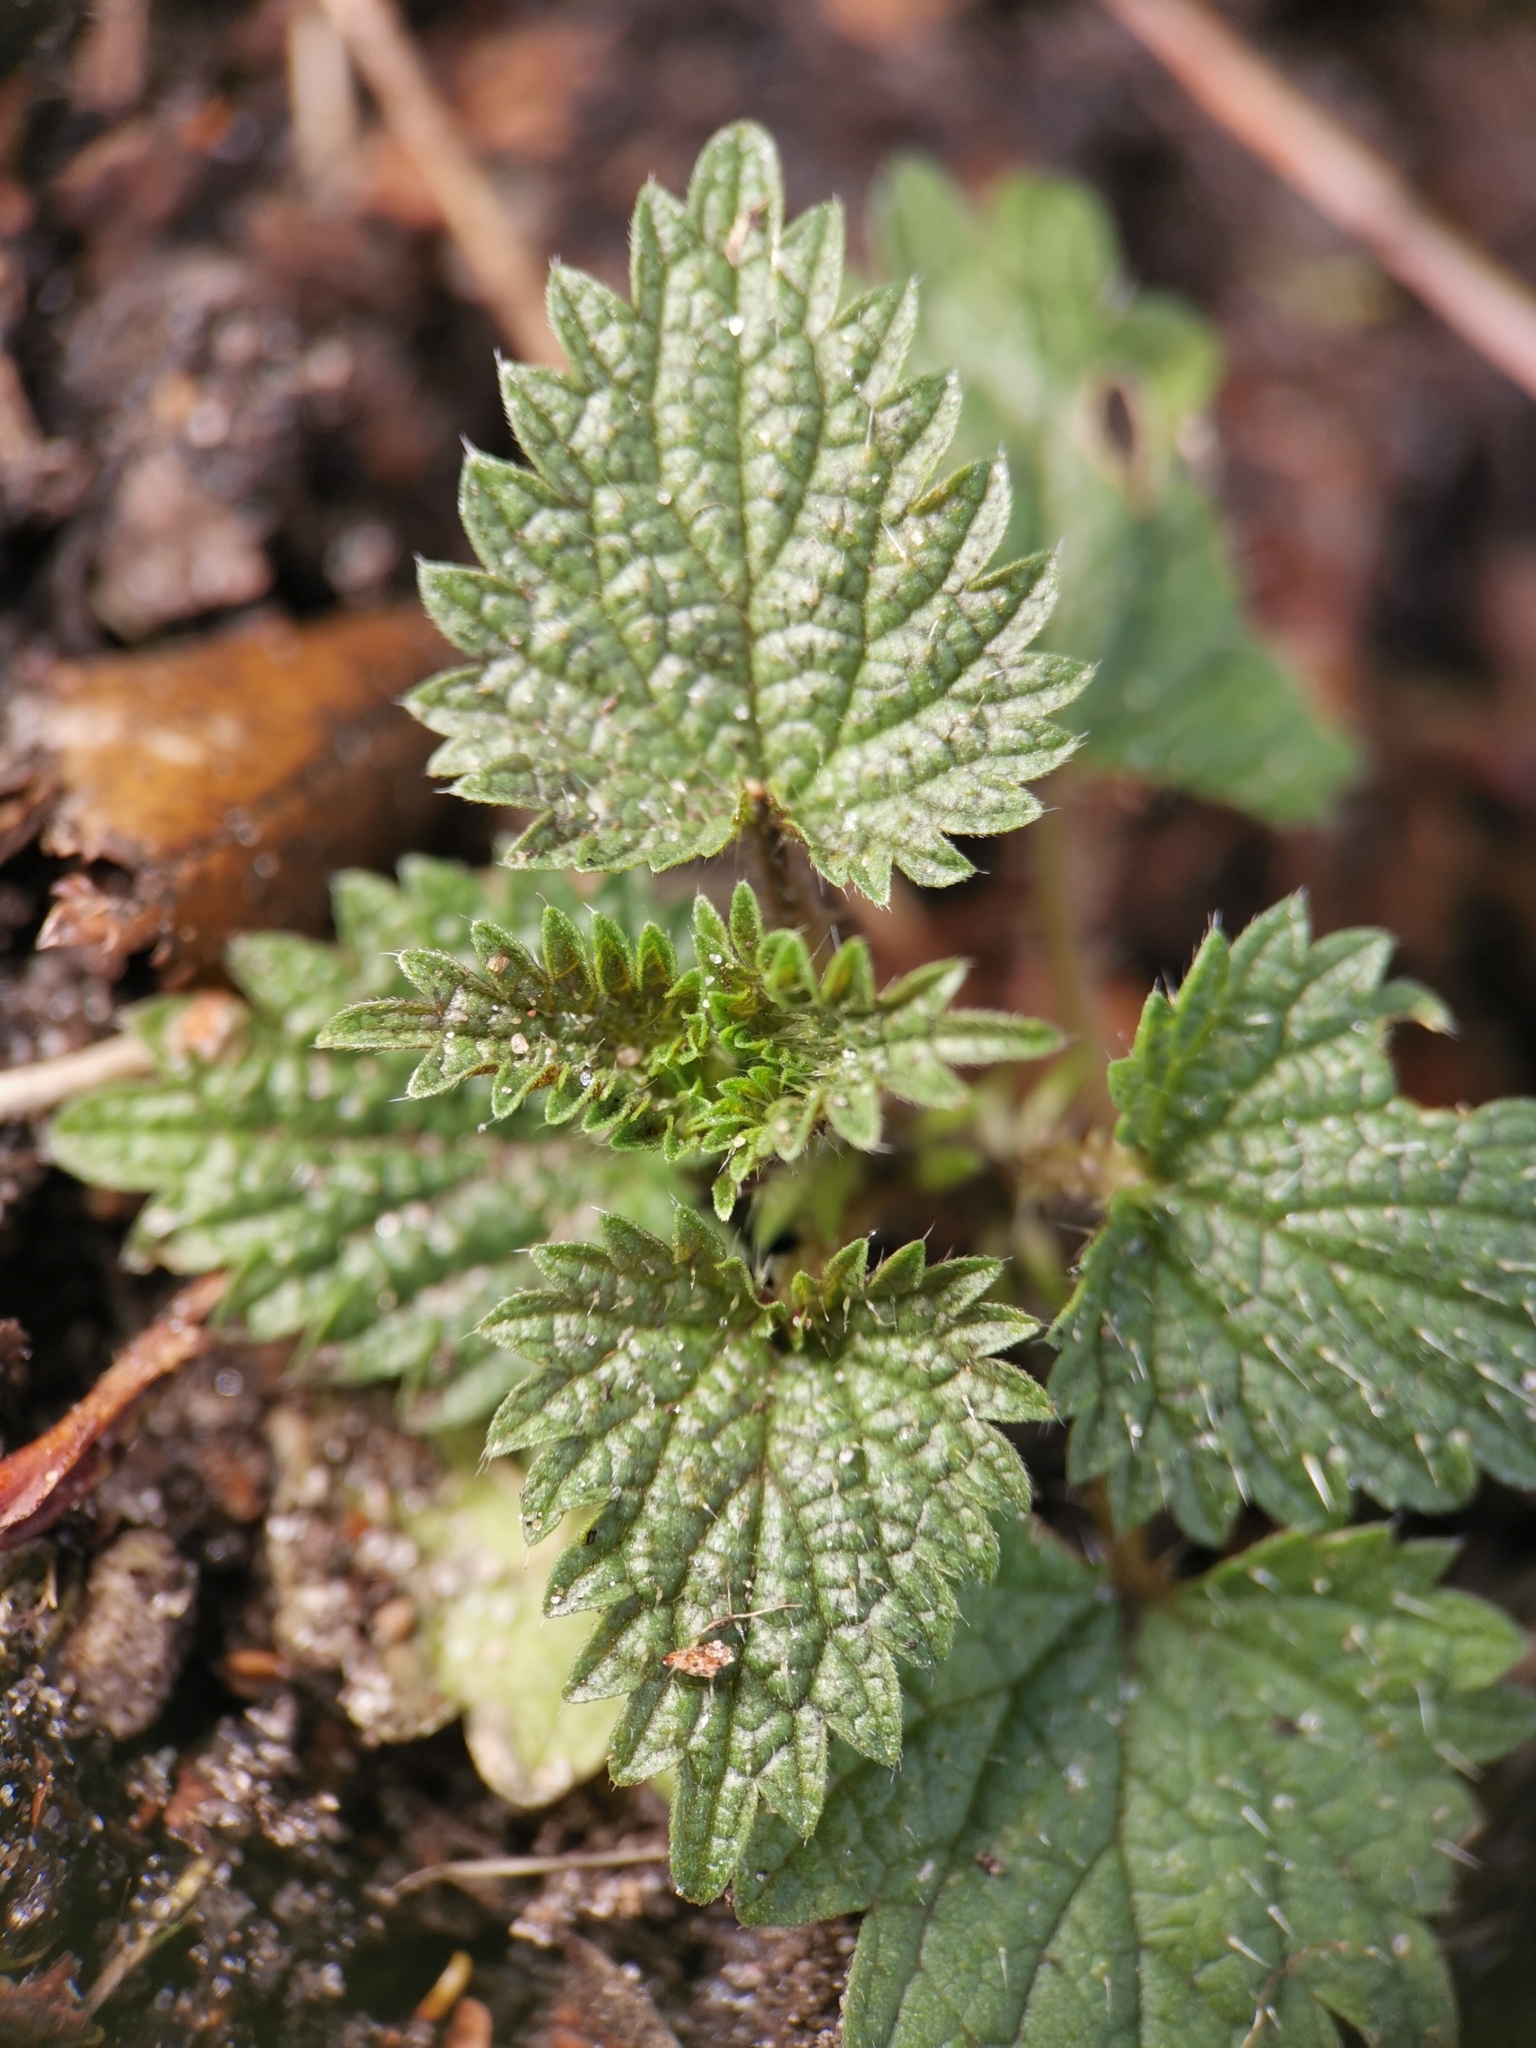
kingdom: Plantae
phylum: Tracheophyta
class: Magnoliopsida
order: Rosales
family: Urticaceae
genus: Urtica
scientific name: Urtica dioica
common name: Common nettle
